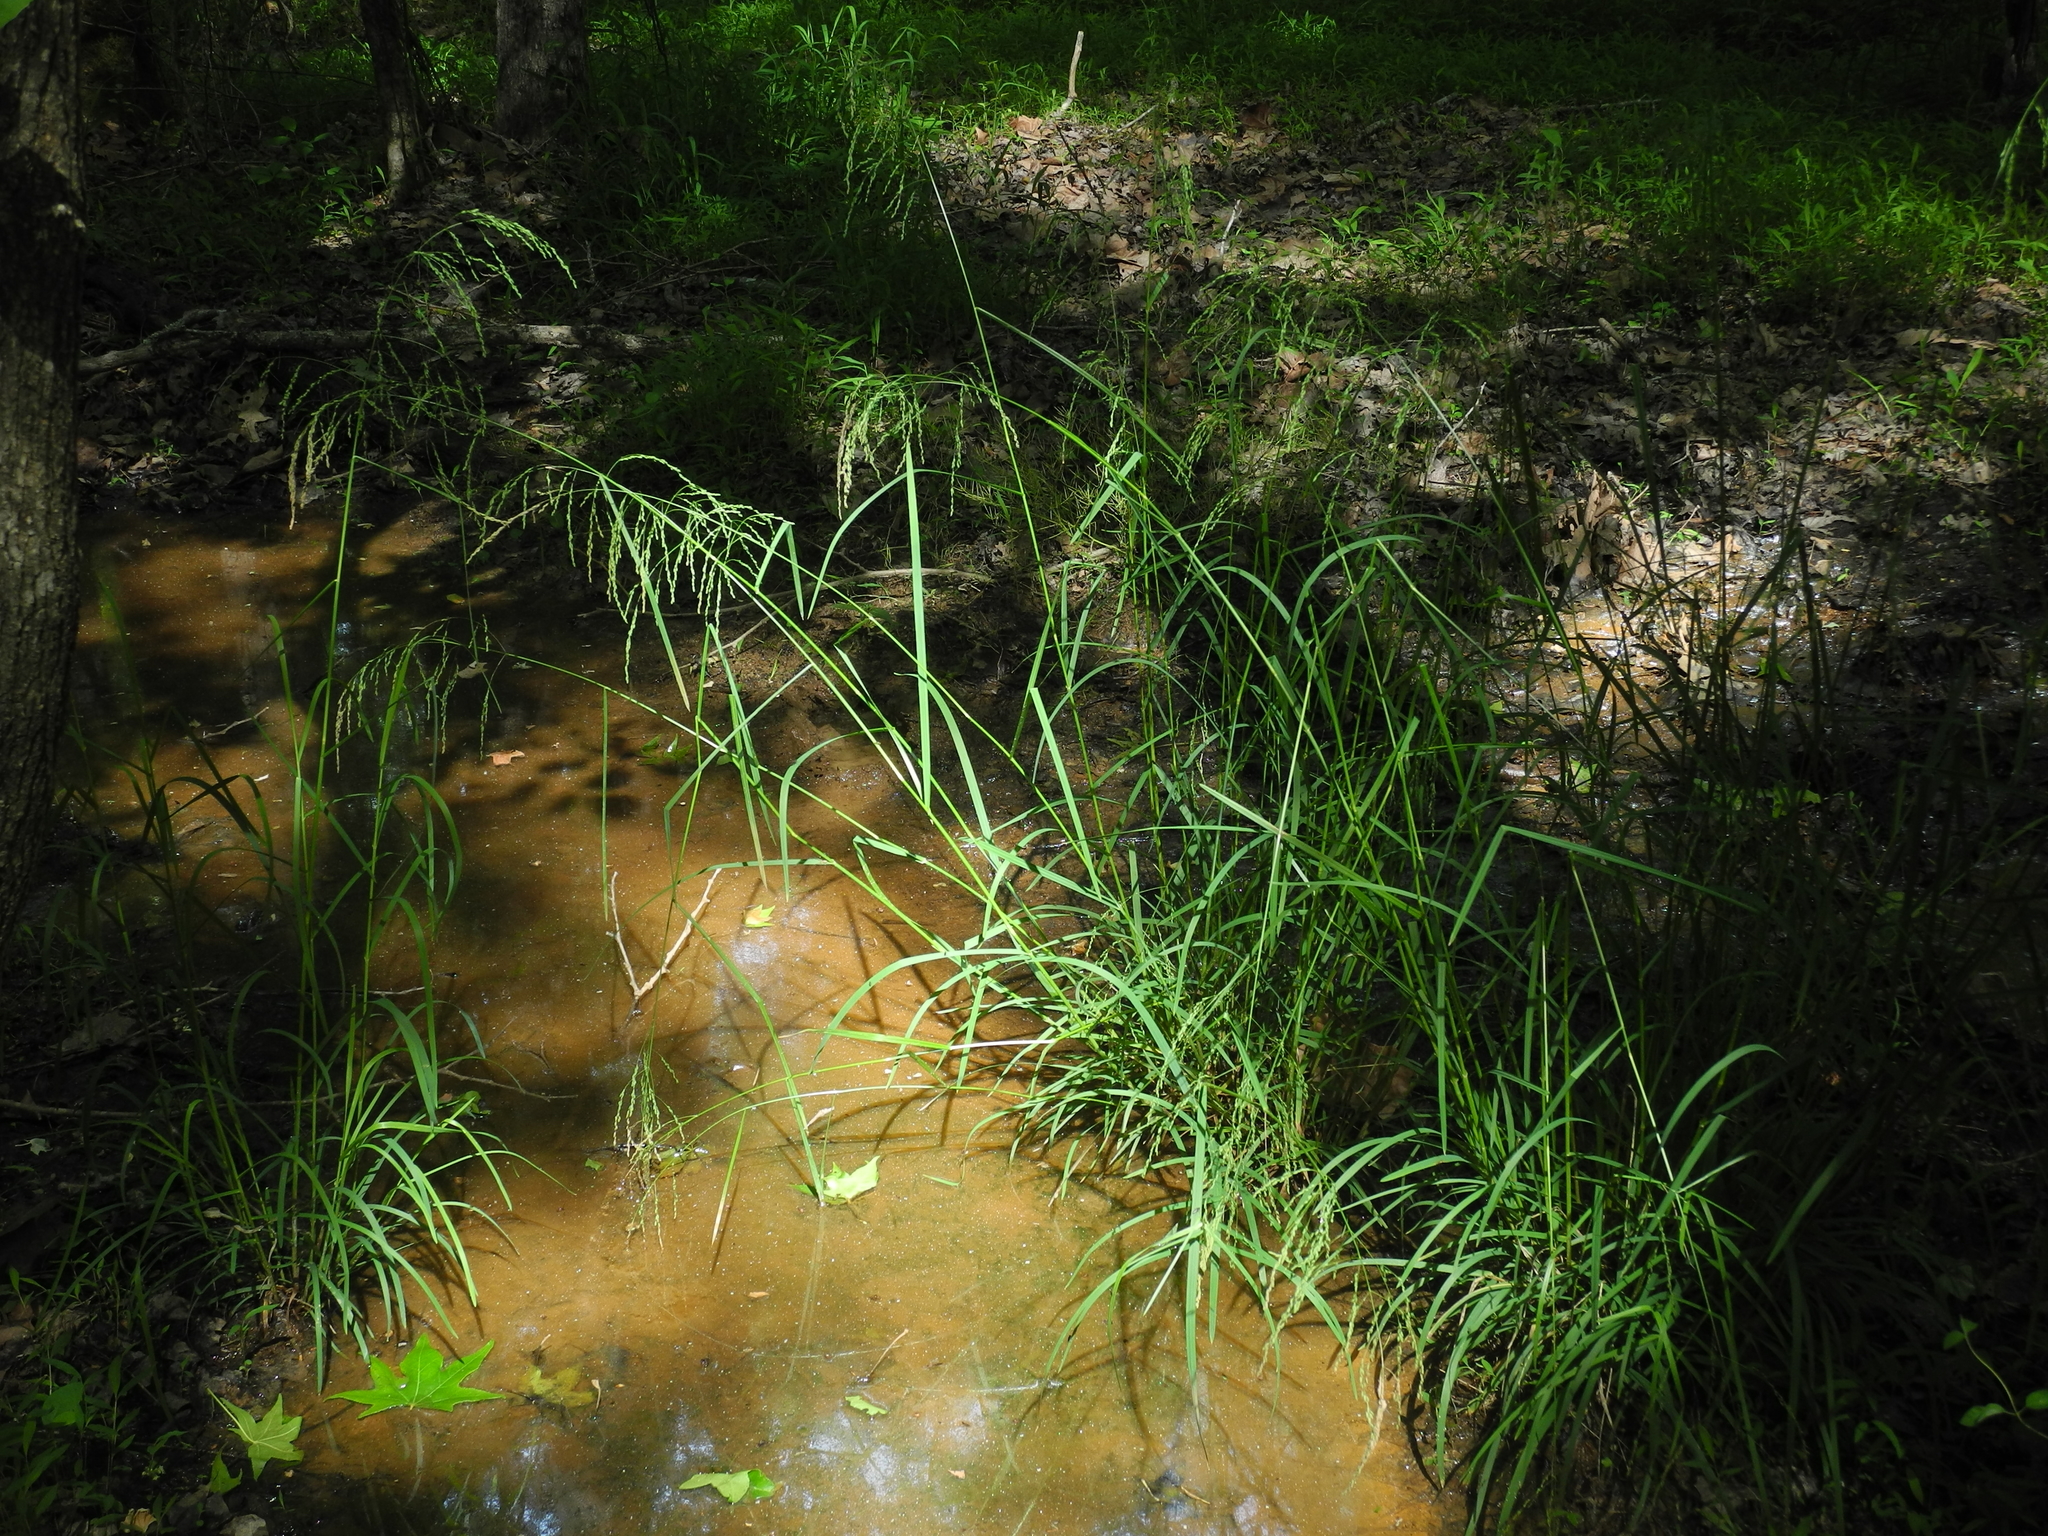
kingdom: Plantae
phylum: Tracheophyta
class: Liliopsida
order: Poales
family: Poaceae
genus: Glyceria
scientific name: Glyceria striata
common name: Fowl manna grass
